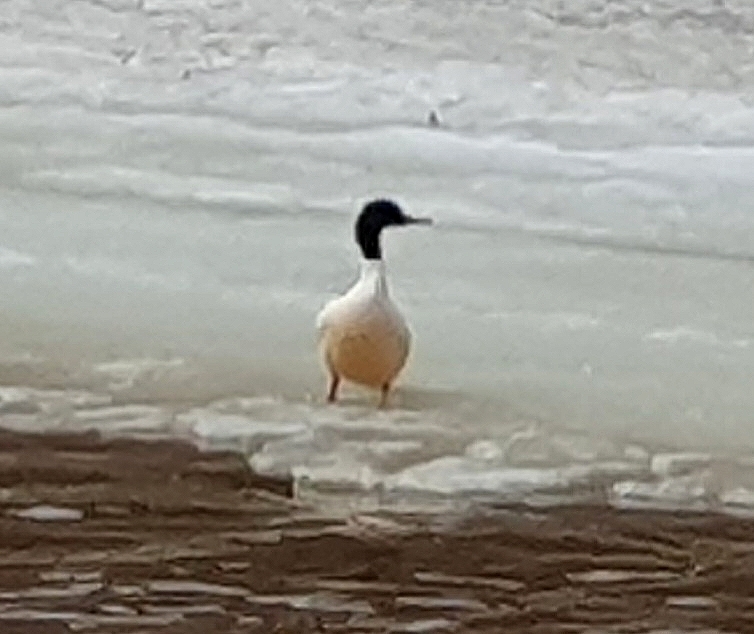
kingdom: Animalia
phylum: Chordata
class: Aves
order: Anseriformes
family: Anatidae
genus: Mergus
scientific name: Mergus merganser
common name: Common merganser
